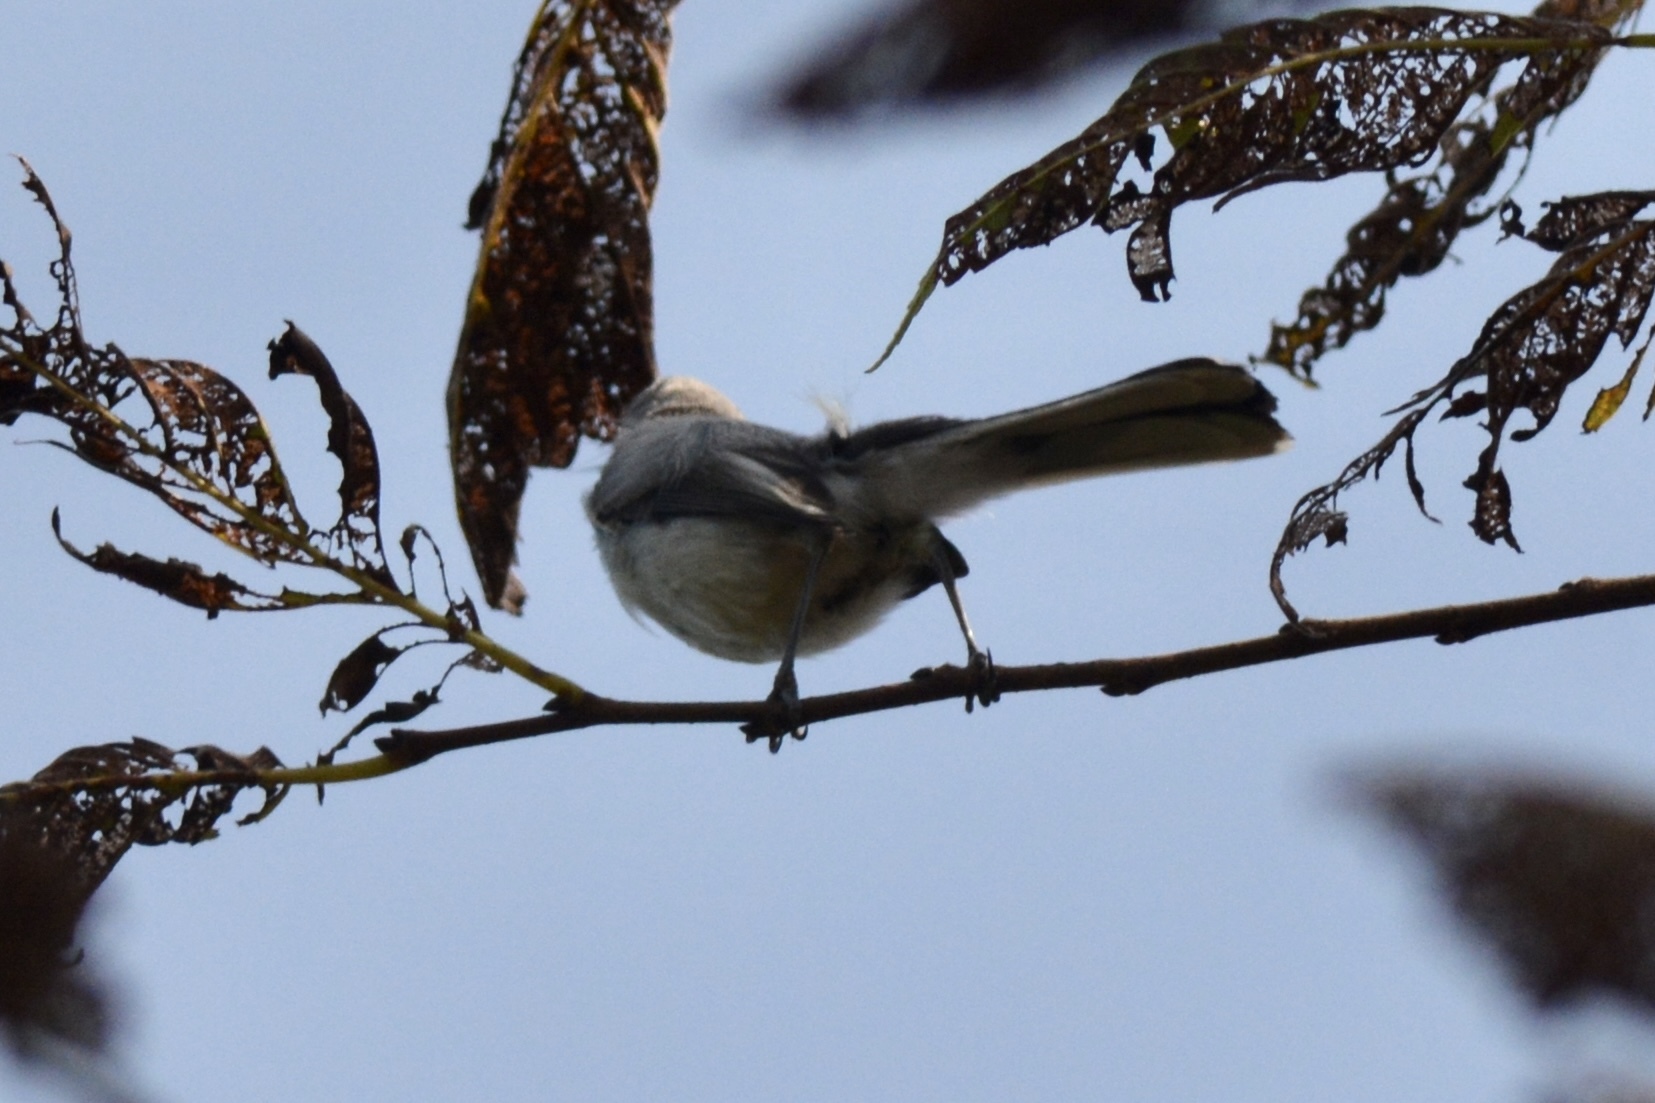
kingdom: Animalia
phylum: Chordata
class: Aves
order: Passeriformes
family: Polioptilidae
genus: Polioptila
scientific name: Polioptila caerulea
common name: Blue-gray gnatcatcher
